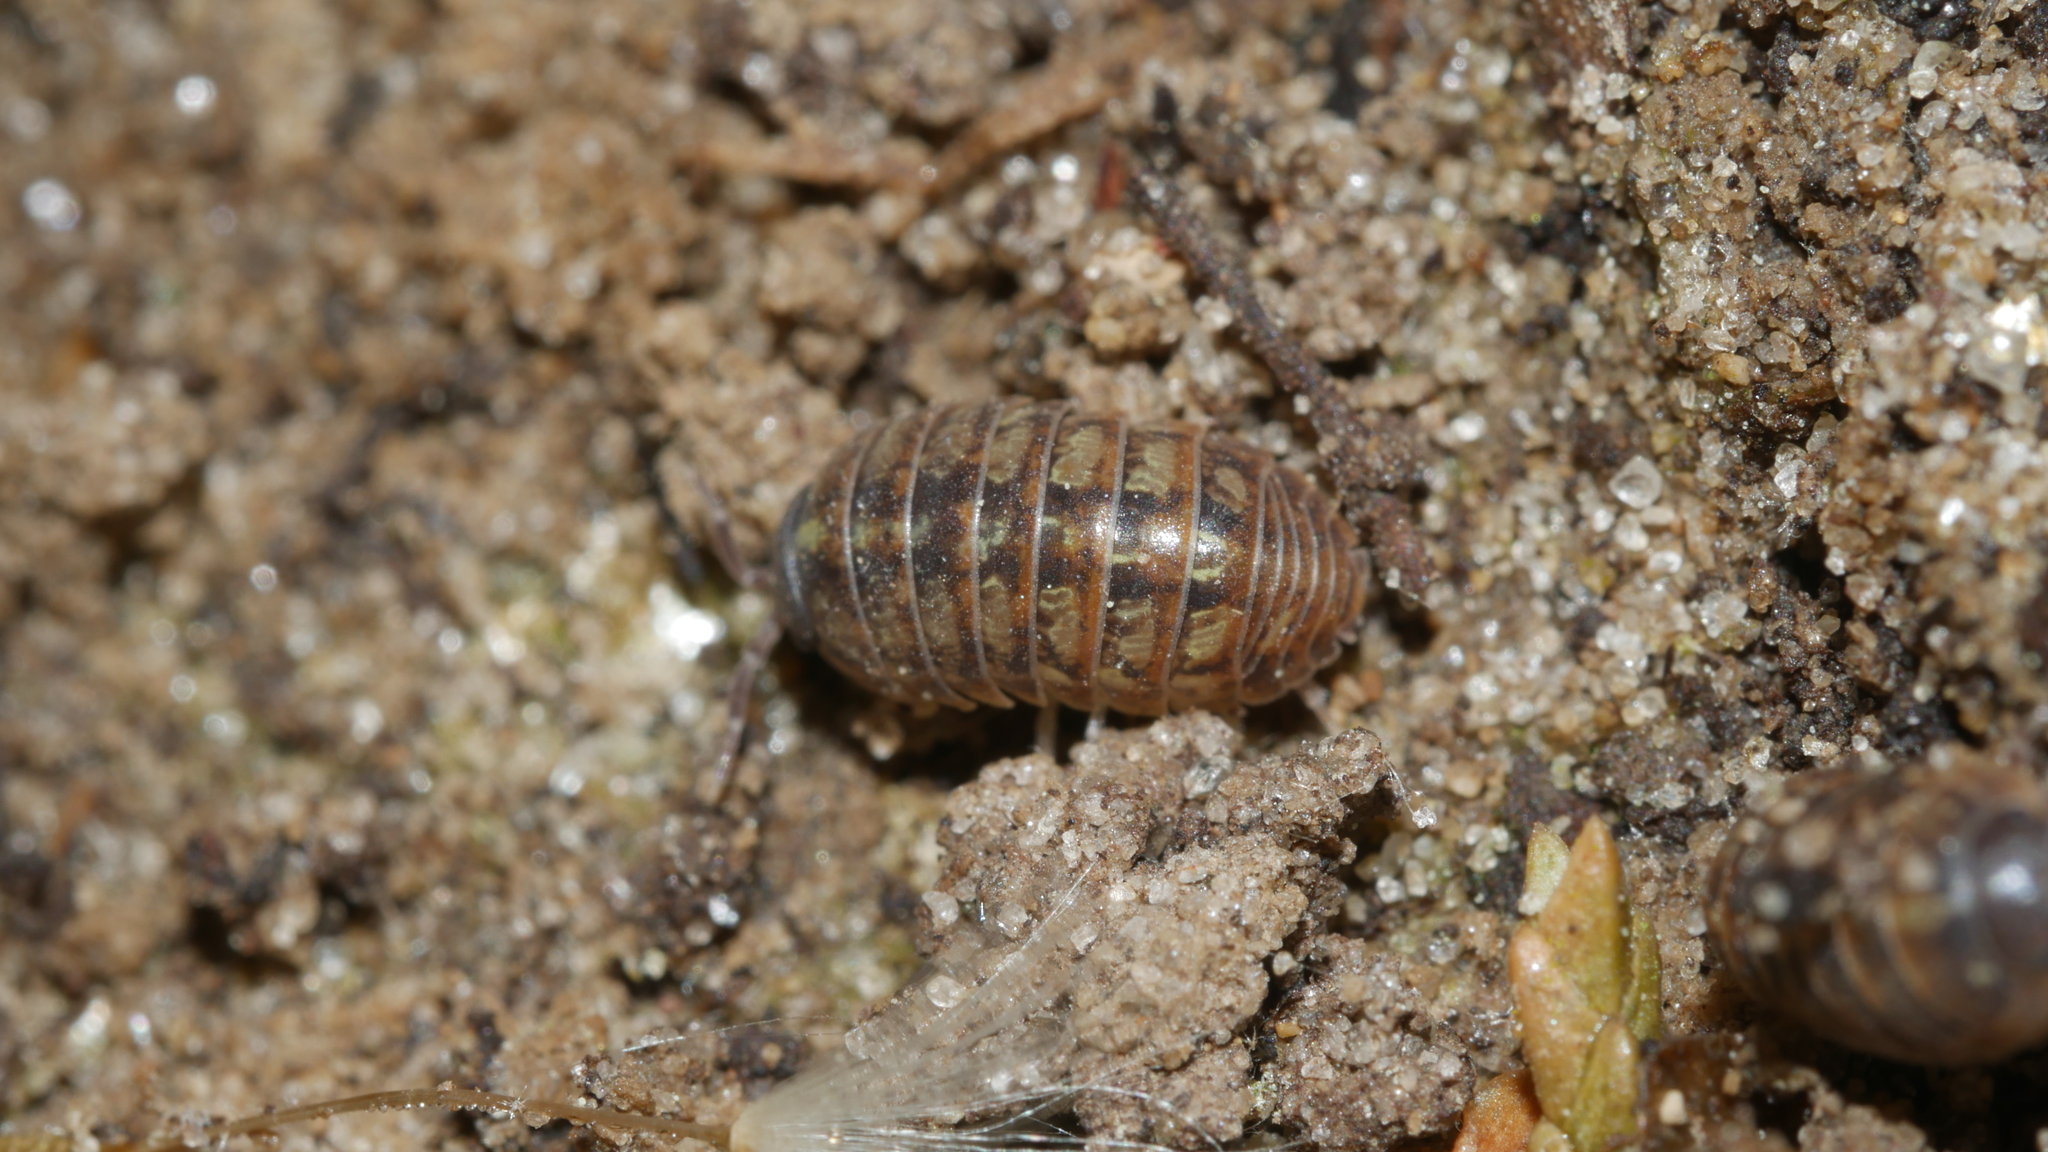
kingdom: Animalia
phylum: Arthropoda
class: Malacostraca
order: Isopoda
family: Armadillidiidae
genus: Armadillidium
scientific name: Armadillidium vulgare
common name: Common pill woodlouse
